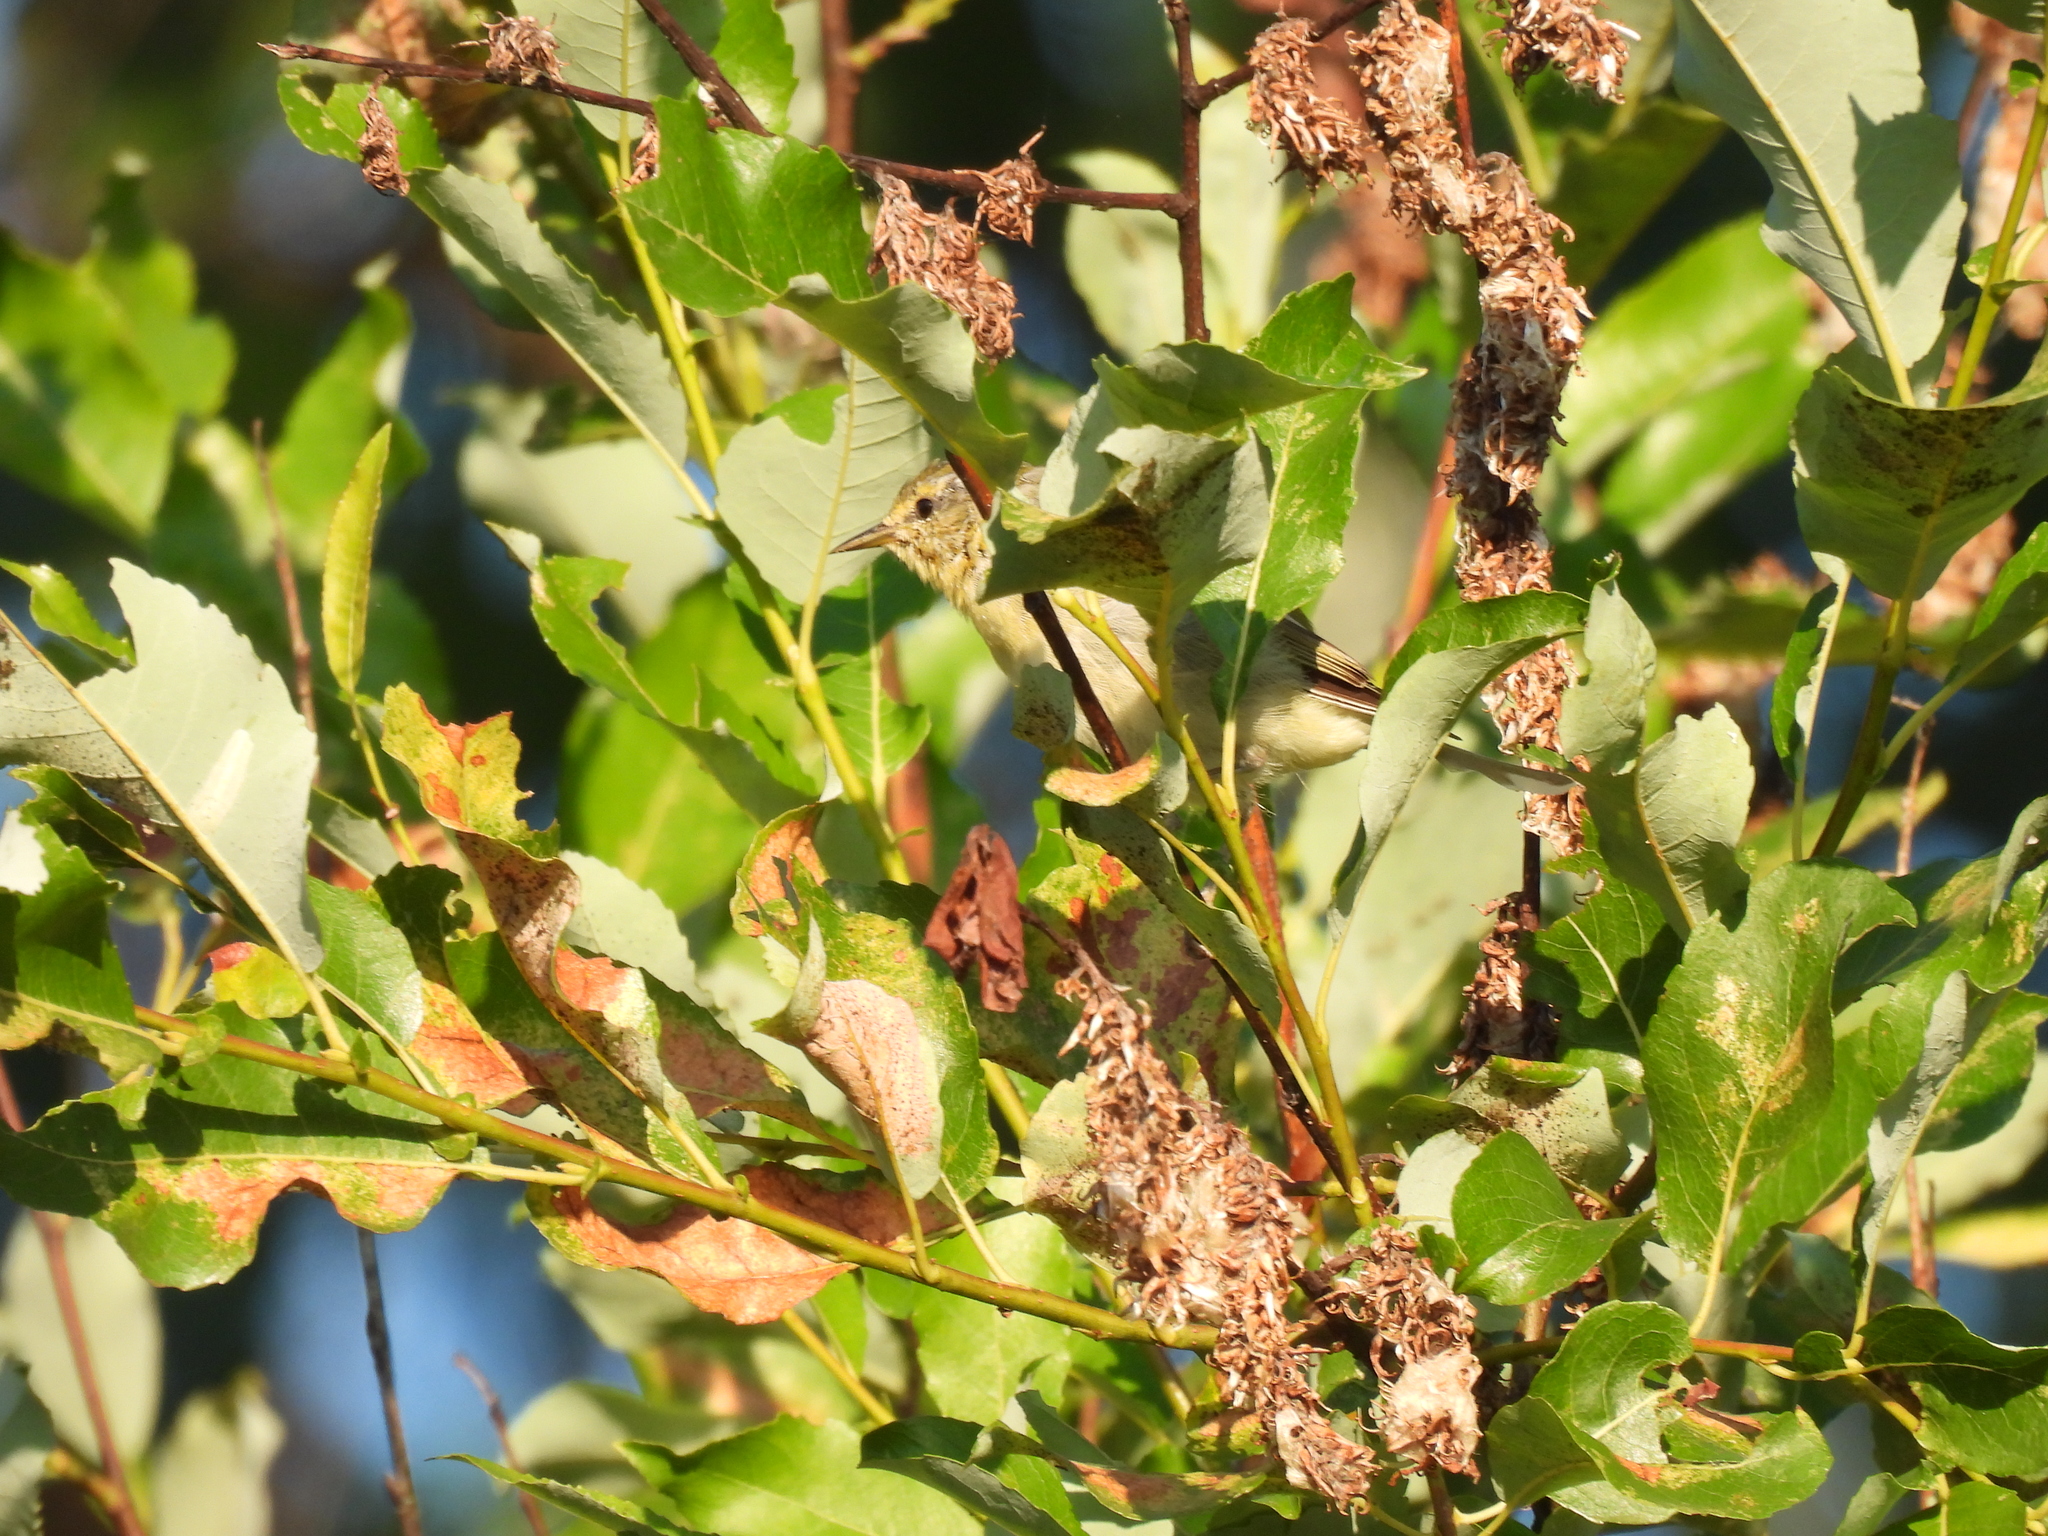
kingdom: Animalia
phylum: Chordata
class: Aves
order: Passeriformes
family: Parulidae
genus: Leiothlypis
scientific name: Leiothlypis peregrina
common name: Tennessee warbler
